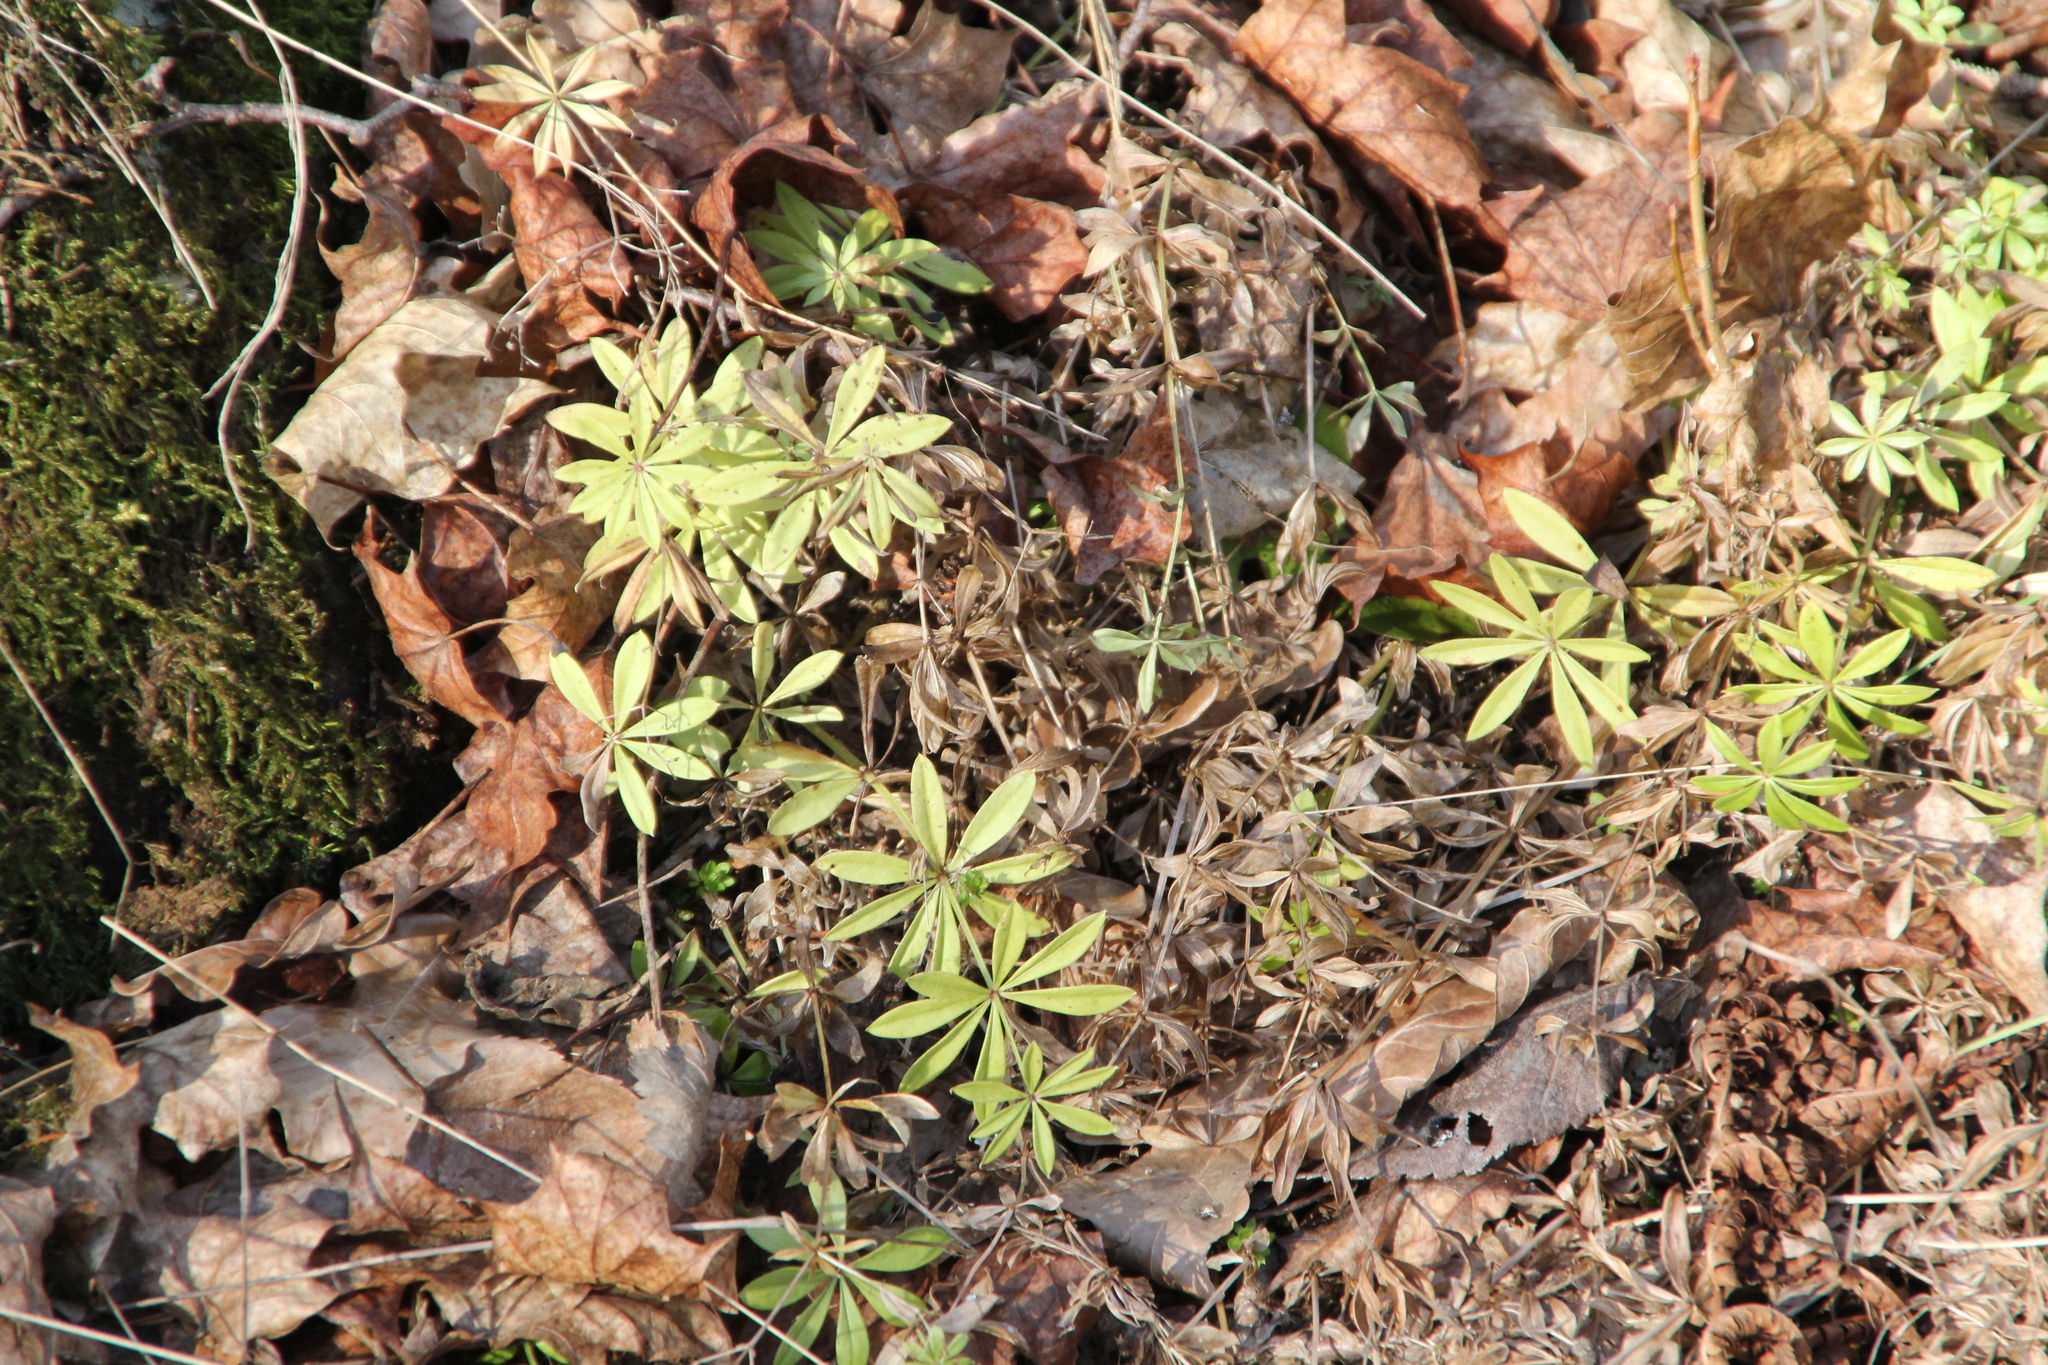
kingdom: Plantae
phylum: Tracheophyta
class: Magnoliopsida
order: Gentianales
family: Rubiaceae
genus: Galium
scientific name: Galium odoratum
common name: Sweet woodruff
